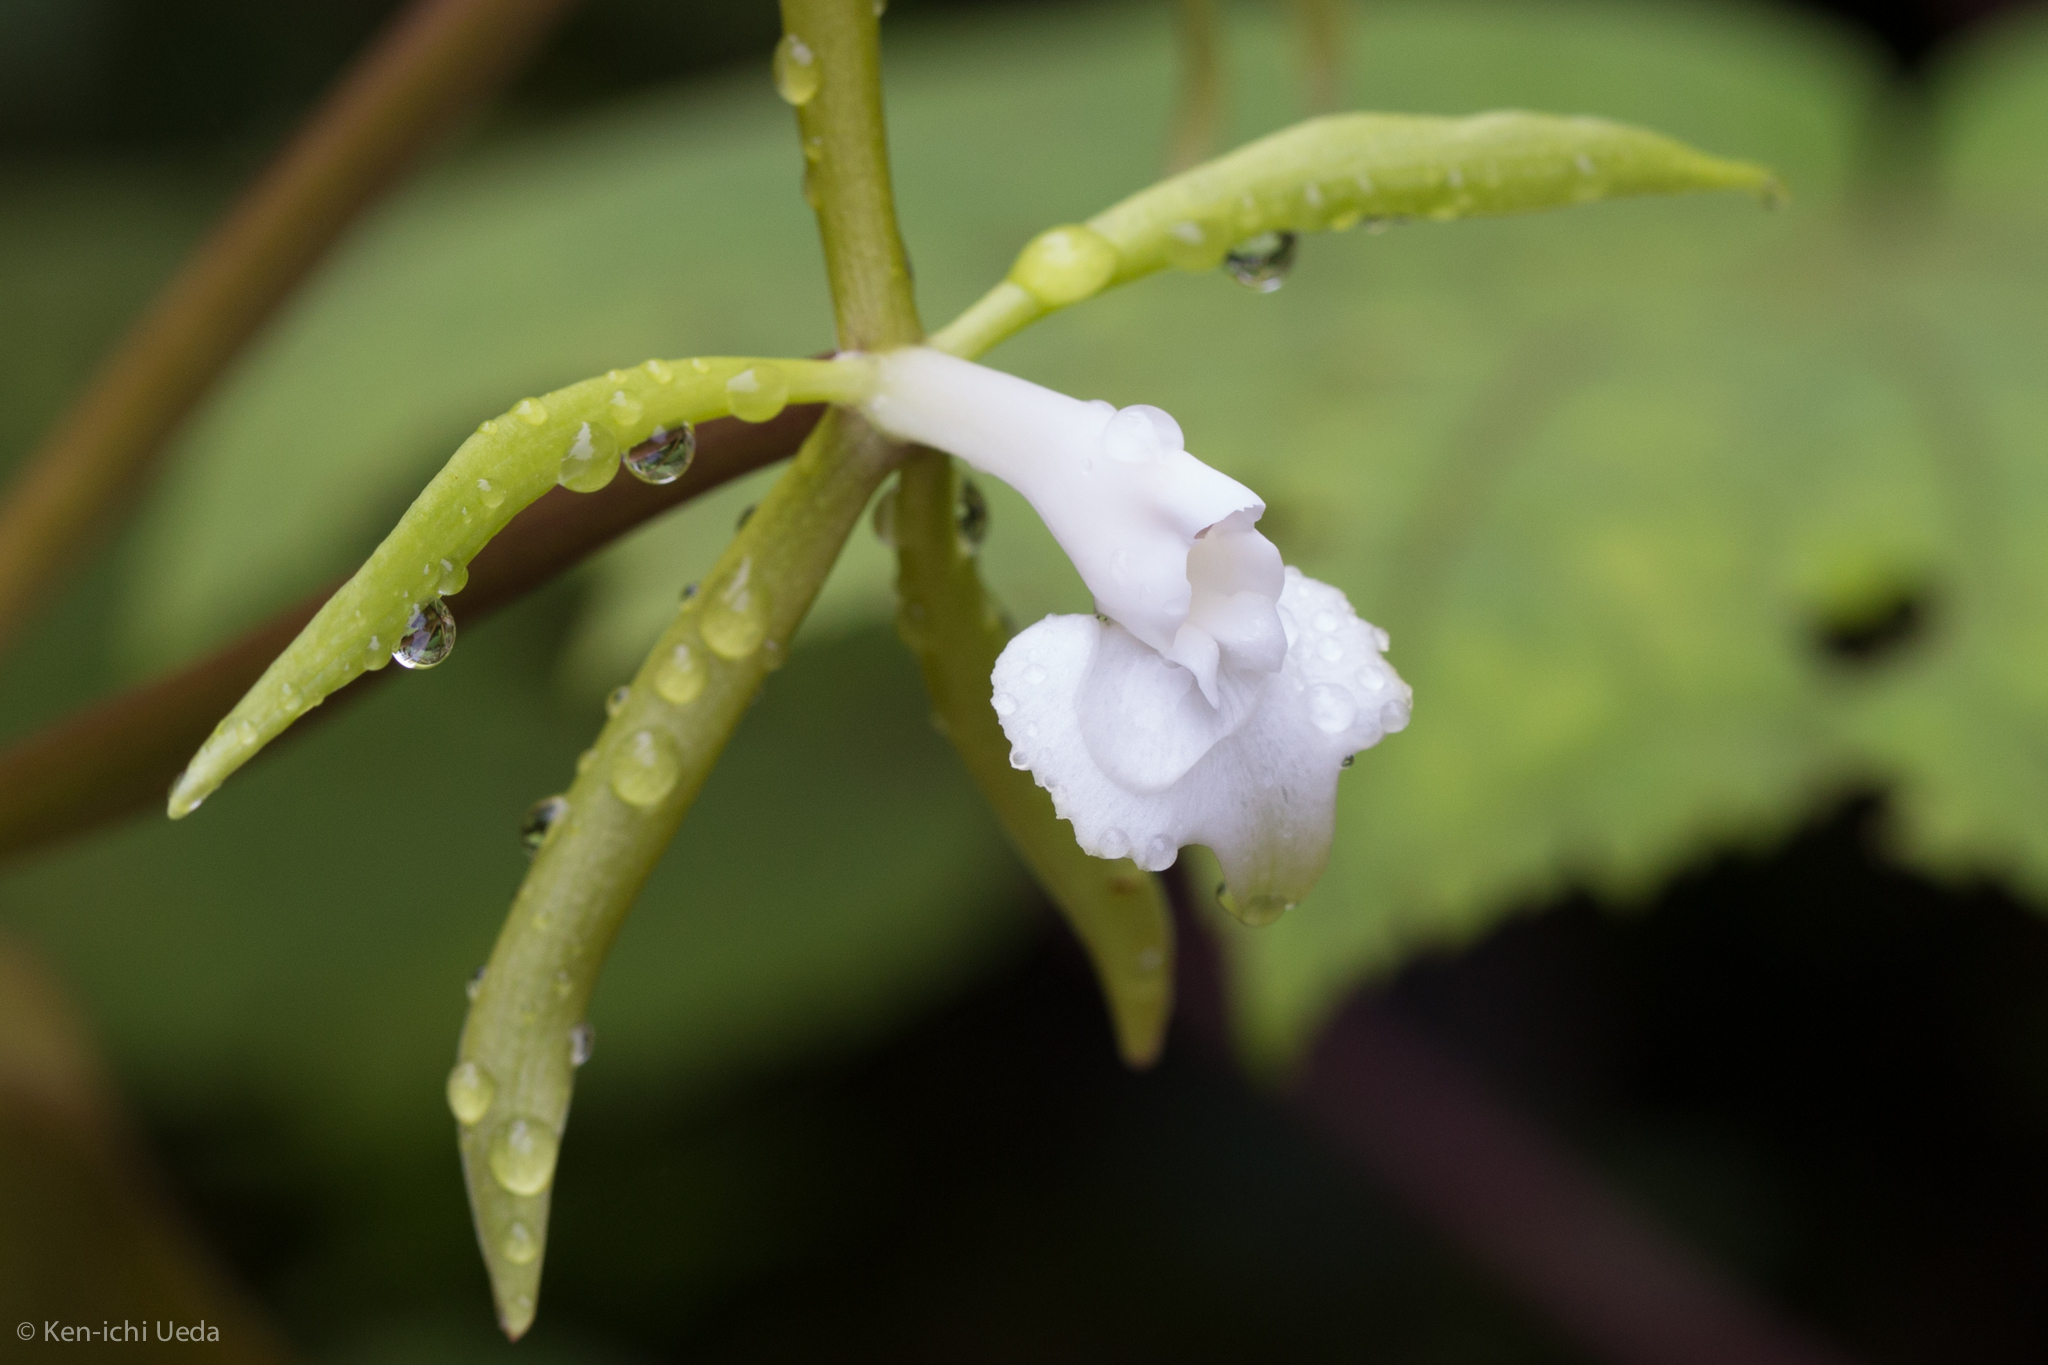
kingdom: Plantae
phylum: Tracheophyta
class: Liliopsida
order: Asparagales
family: Orchidaceae
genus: Epidendrum
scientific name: Epidendrum lacustre
